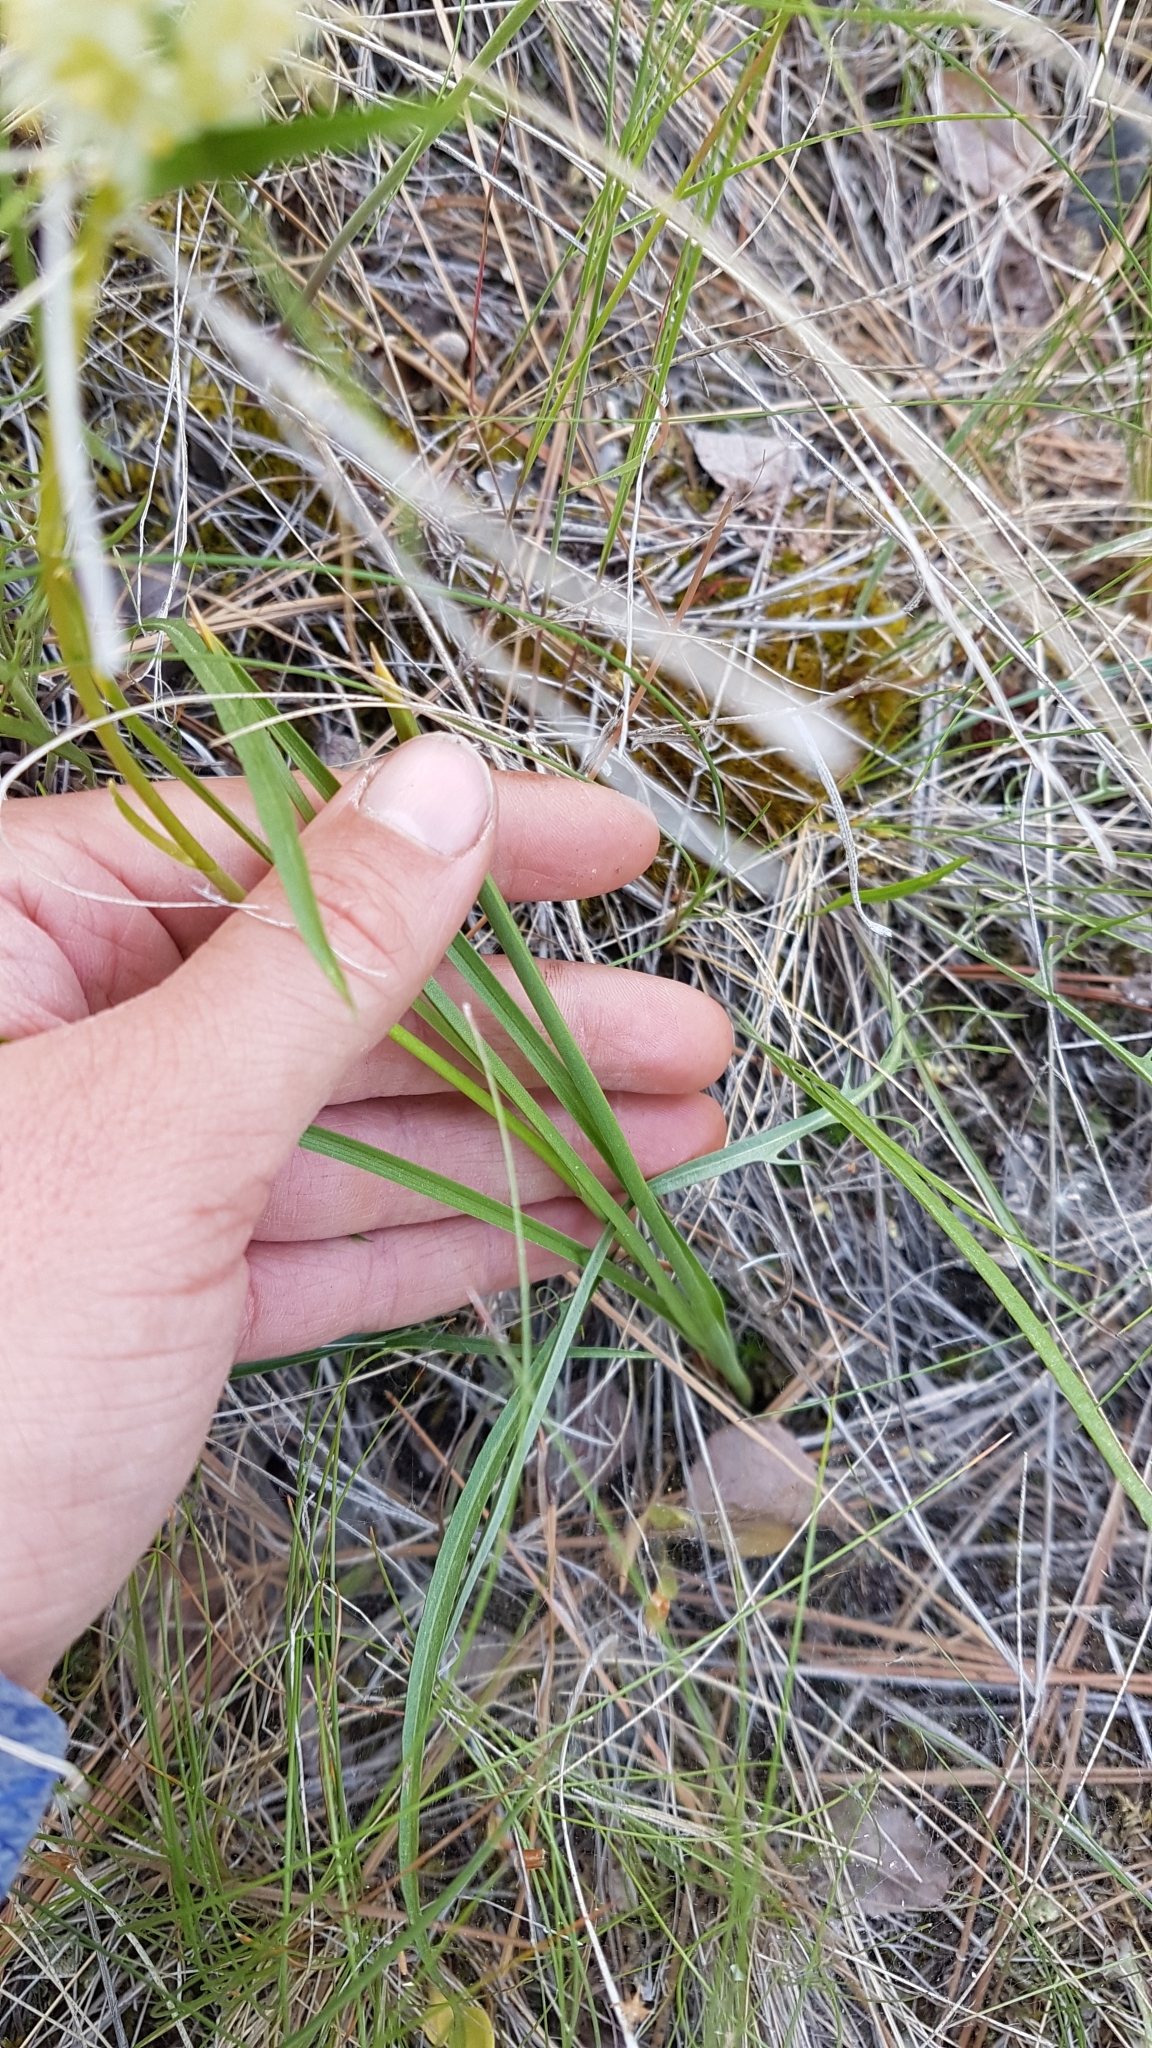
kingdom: Plantae
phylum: Tracheophyta
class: Liliopsida
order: Liliales
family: Melanthiaceae
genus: Toxicoscordion
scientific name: Toxicoscordion venenosum
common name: Meadow death camas
